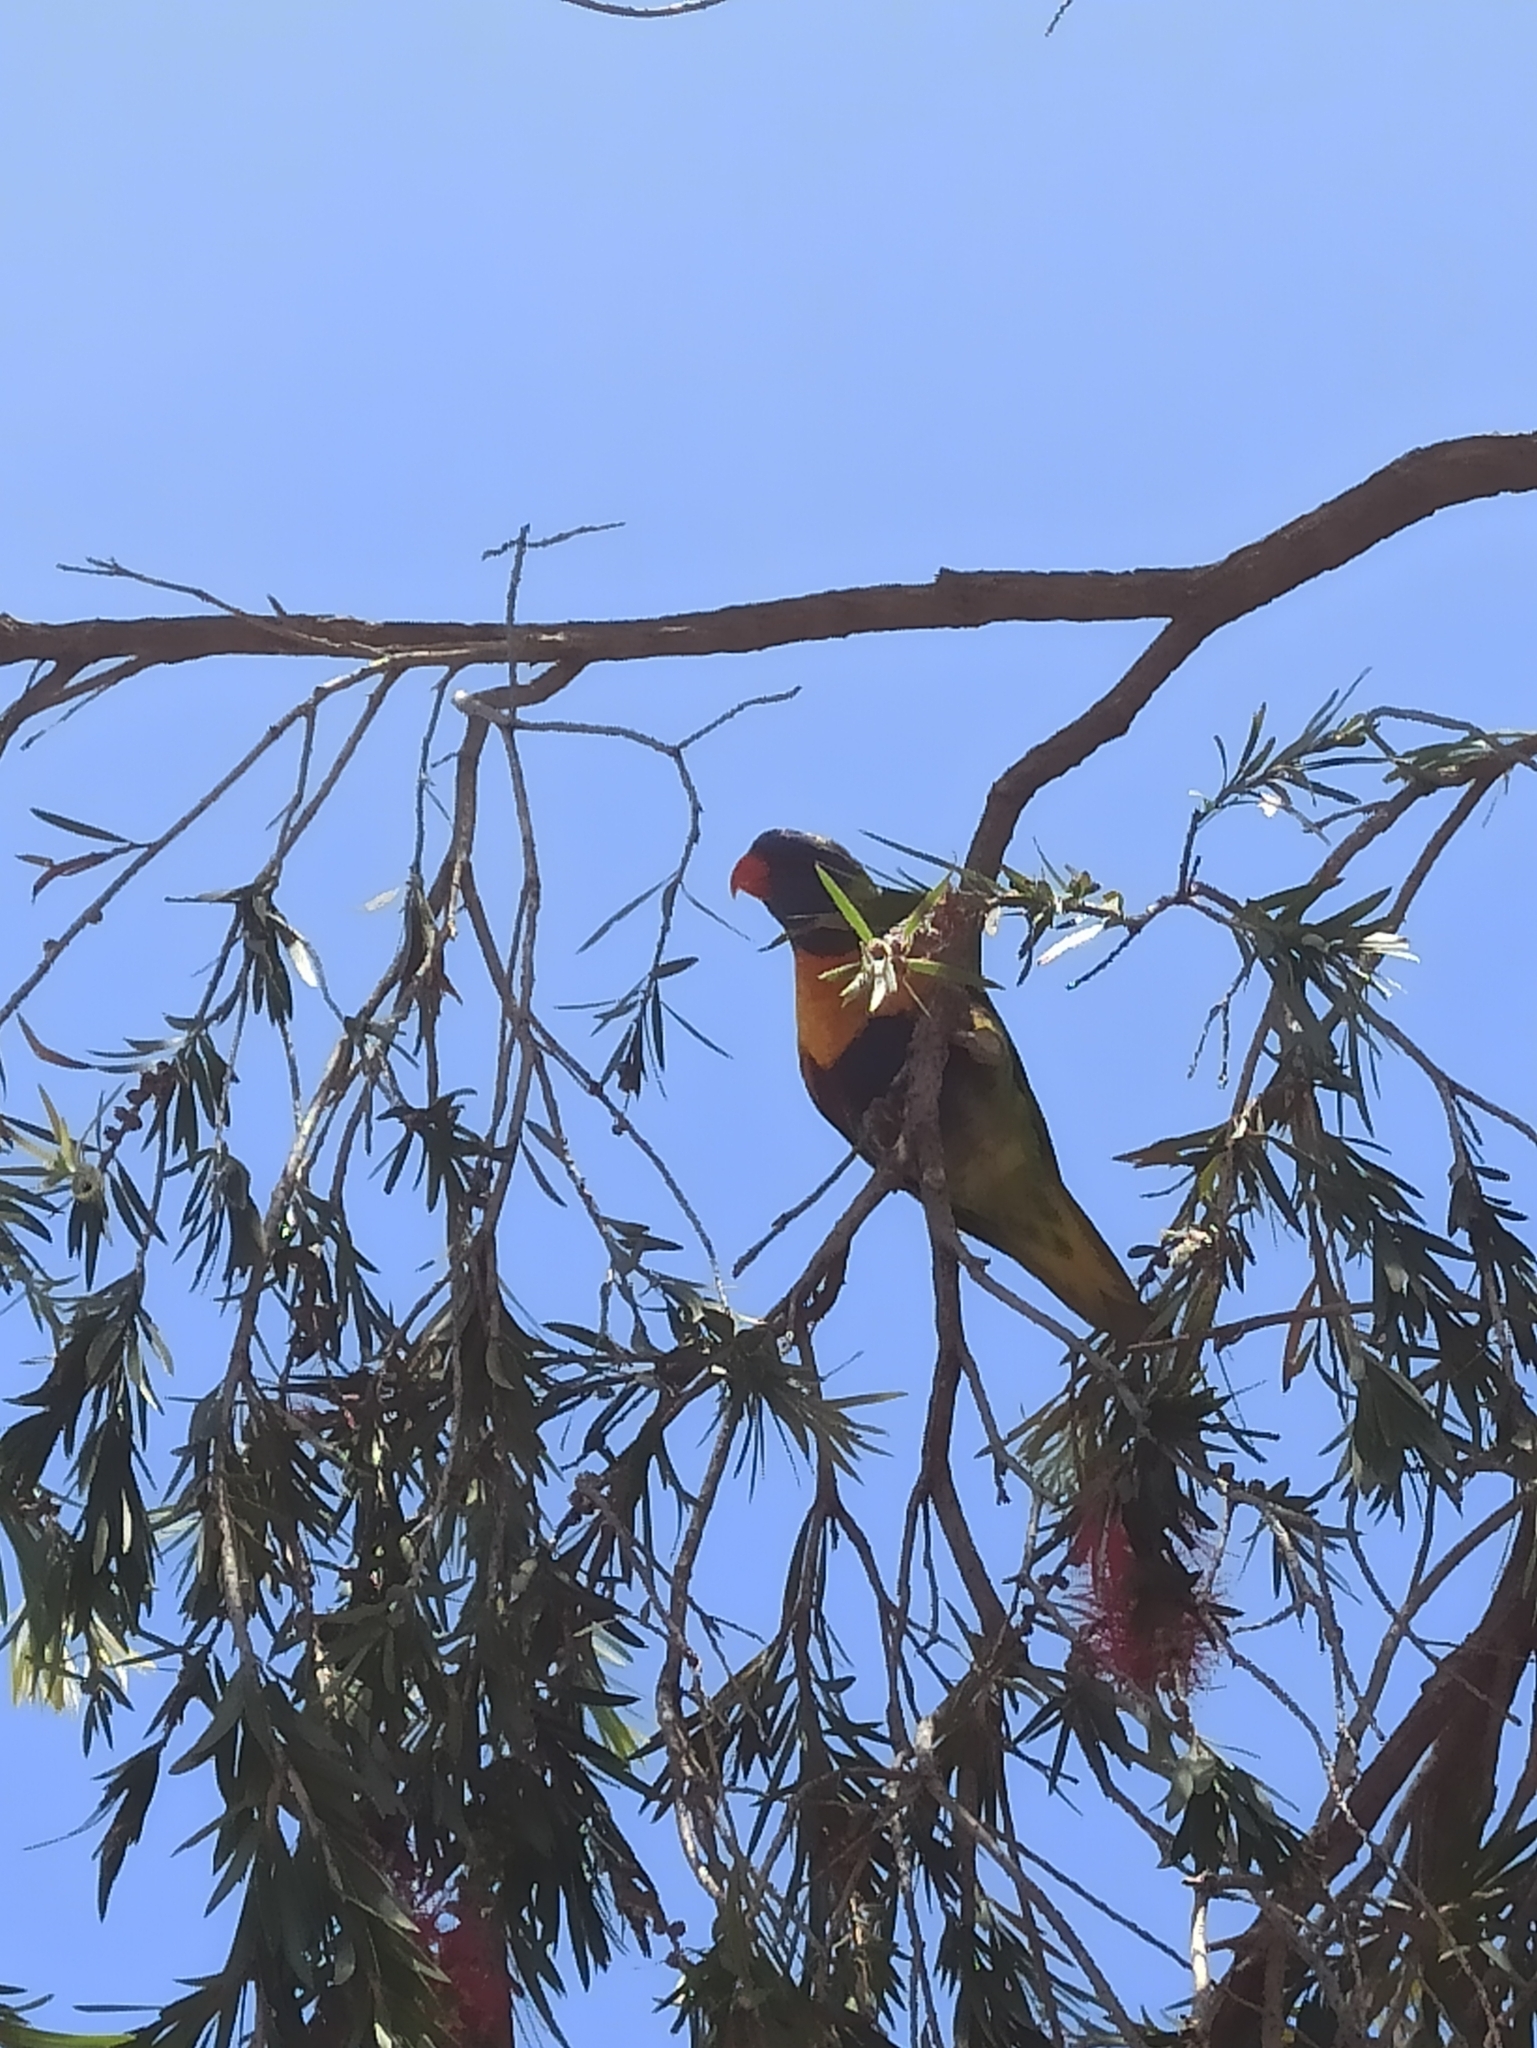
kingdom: Animalia
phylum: Chordata
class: Aves
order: Psittaciformes
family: Psittacidae
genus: Trichoglossus
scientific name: Trichoglossus haematodus
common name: Coconut lorikeet
